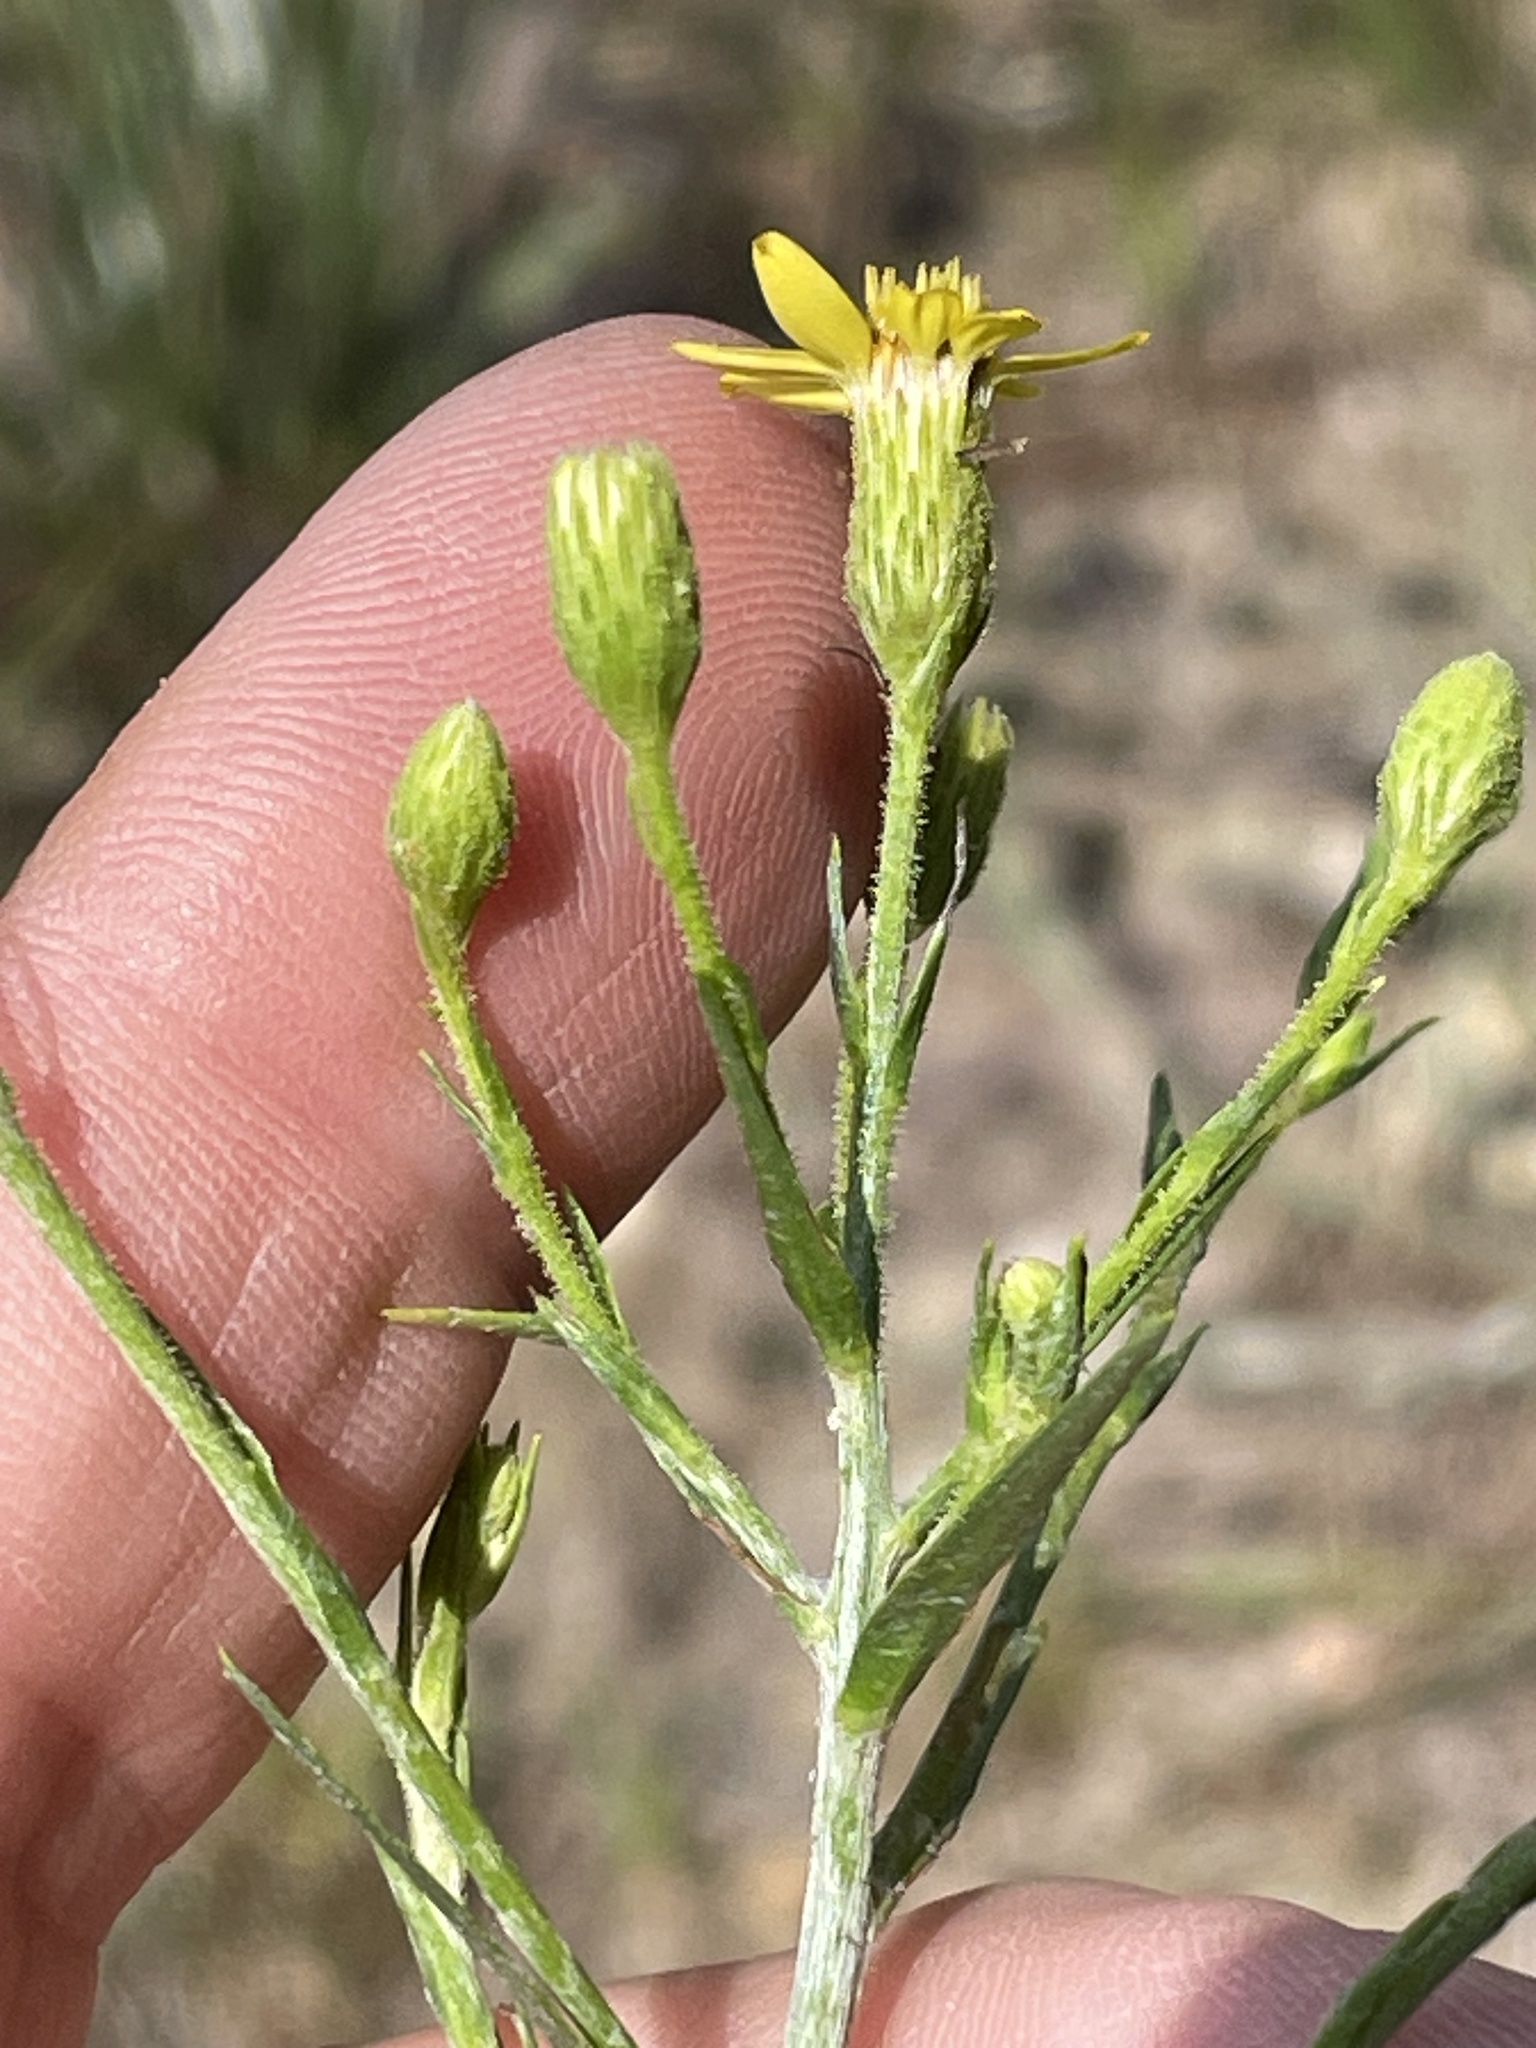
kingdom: Plantae
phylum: Tracheophyta
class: Magnoliopsida
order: Asterales
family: Asteraceae
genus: Pityopsis
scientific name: Pityopsis aspera
